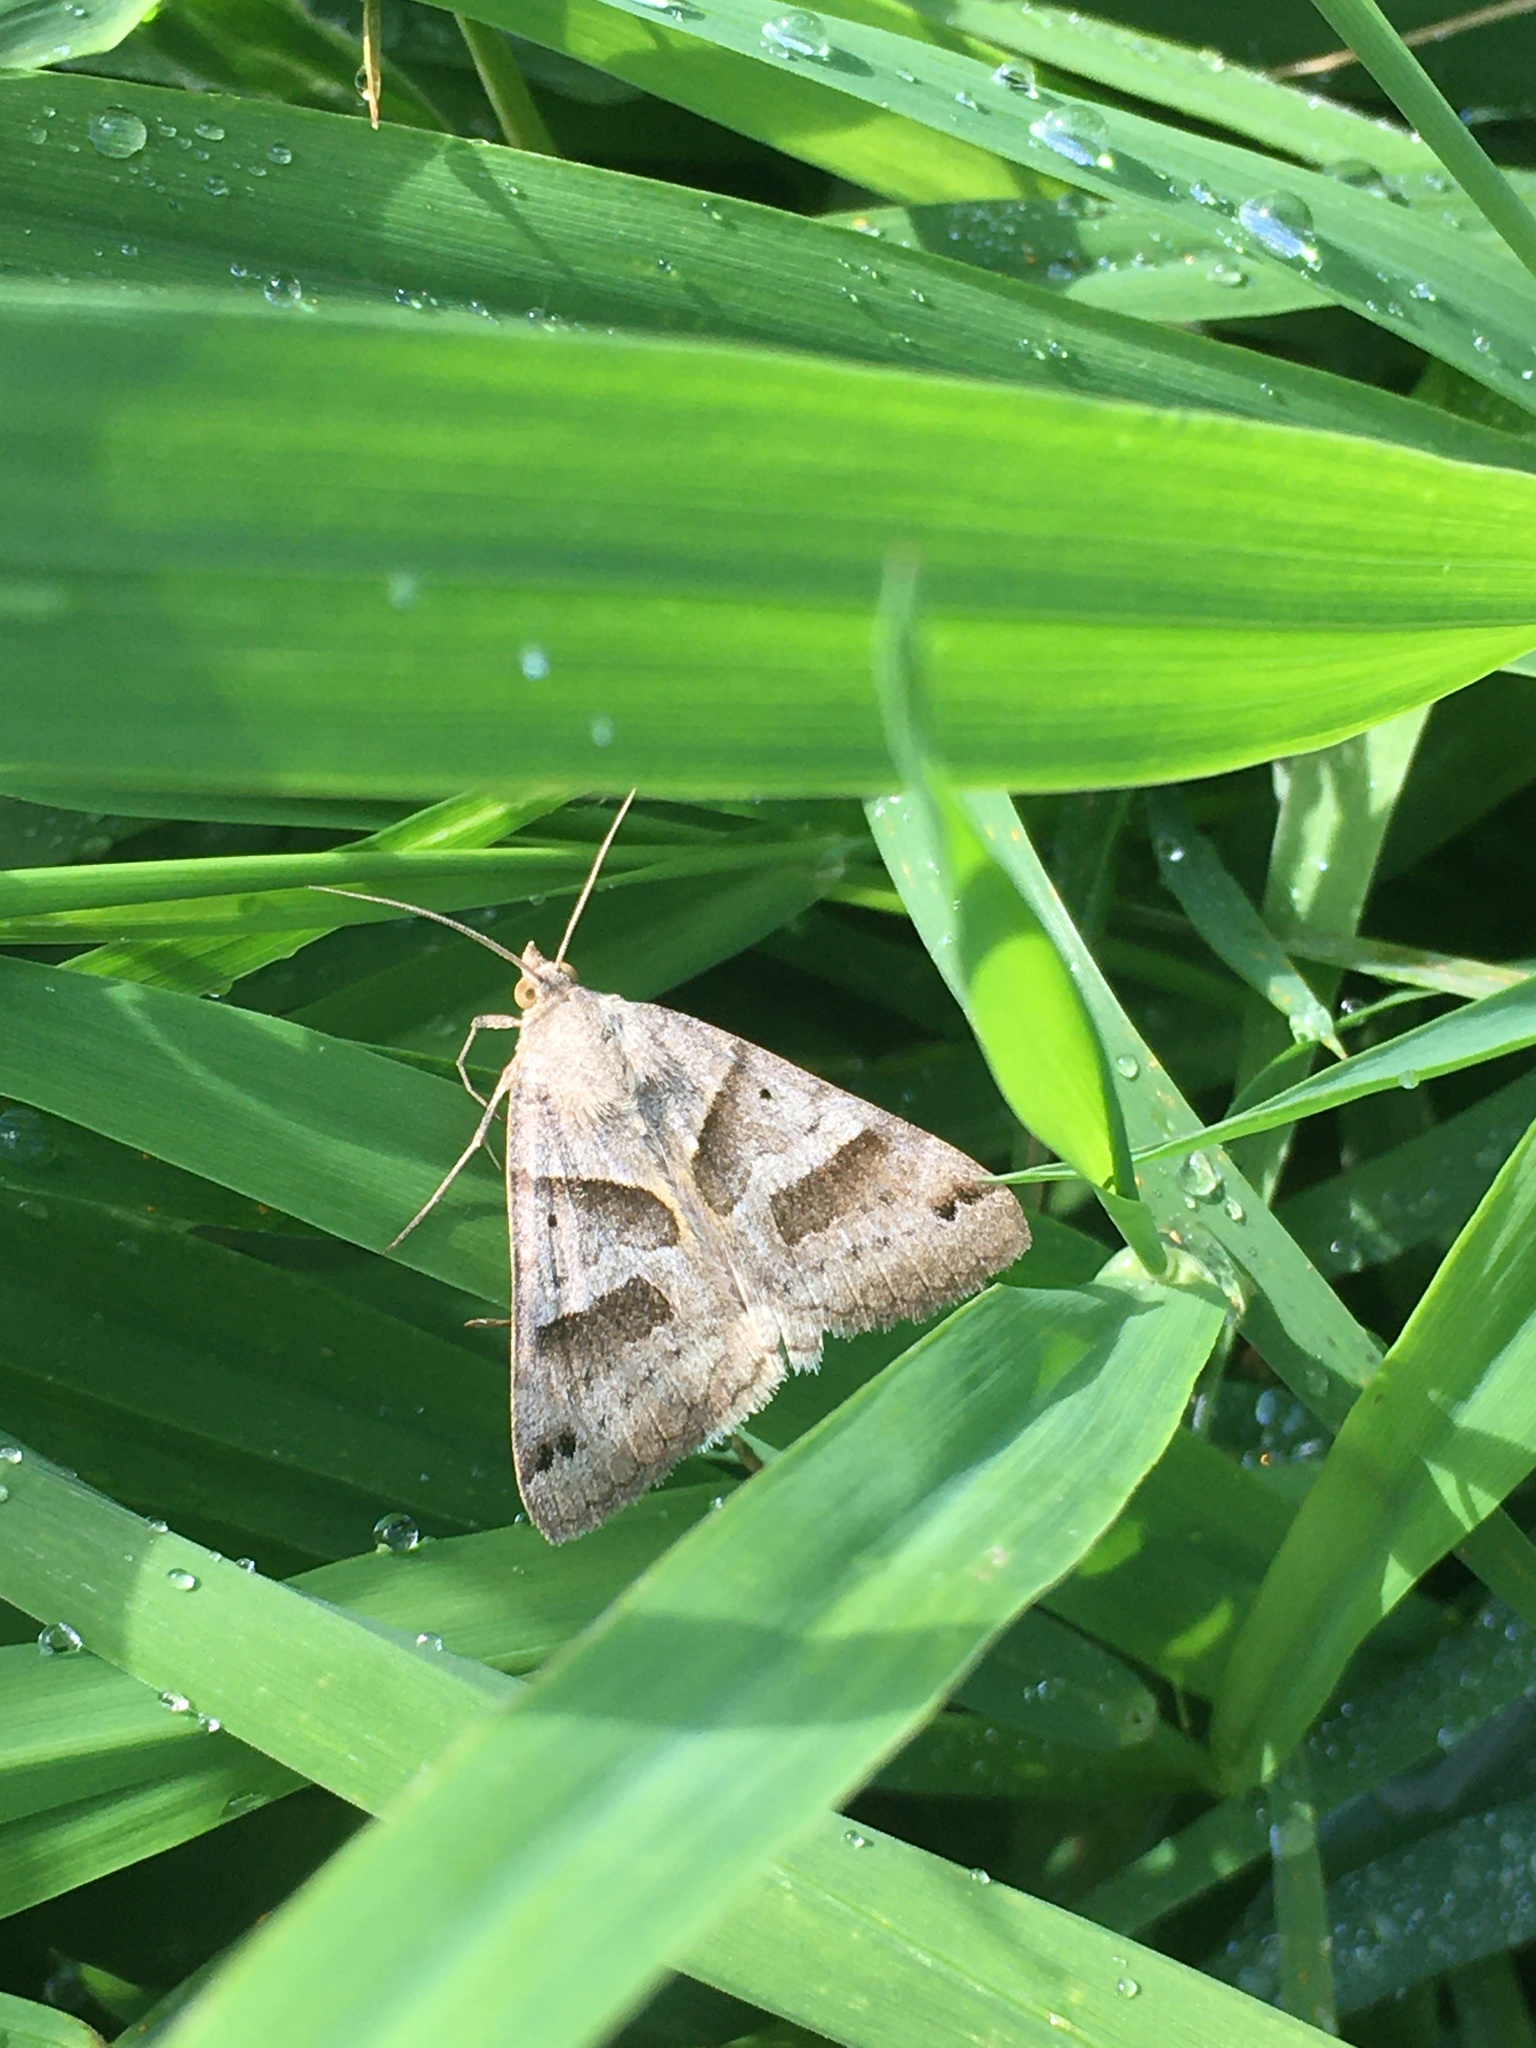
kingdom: Animalia
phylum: Arthropoda
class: Insecta
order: Lepidoptera
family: Erebidae
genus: Caenurgina
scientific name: Caenurgina erechtea
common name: Forage looper moth
